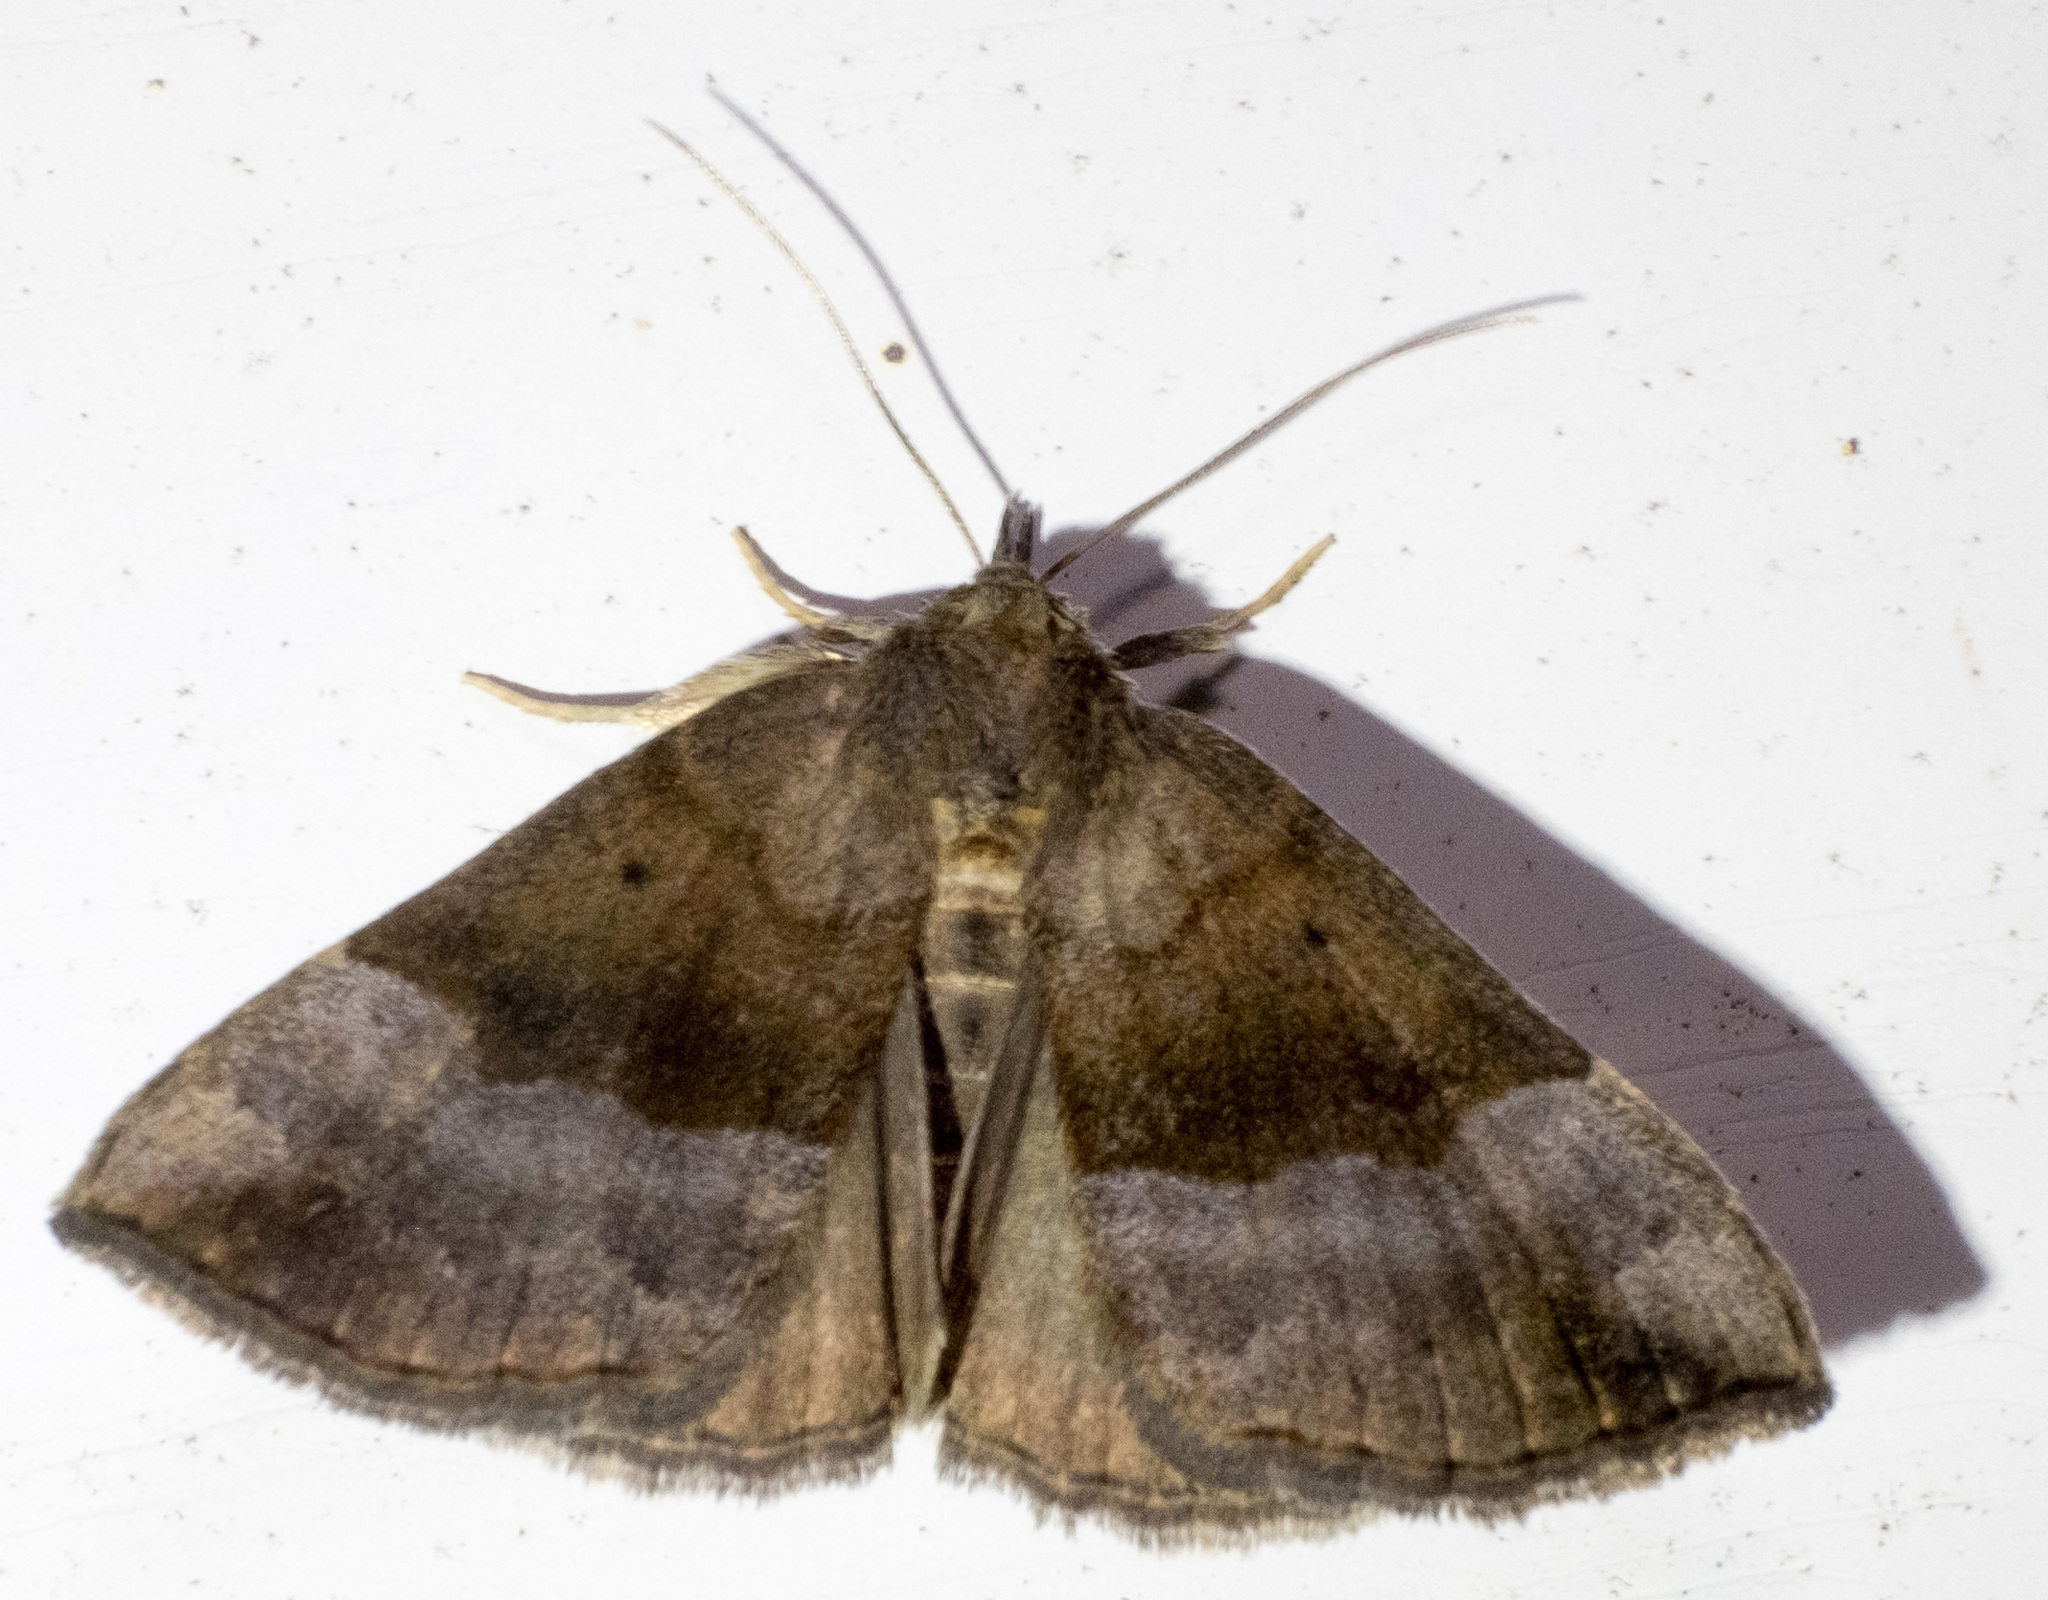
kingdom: Animalia
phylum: Arthropoda
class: Insecta
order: Lepidoptera
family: Erebidae
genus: Hypena
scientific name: Hypena madefactalis
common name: Gray-edged snout
